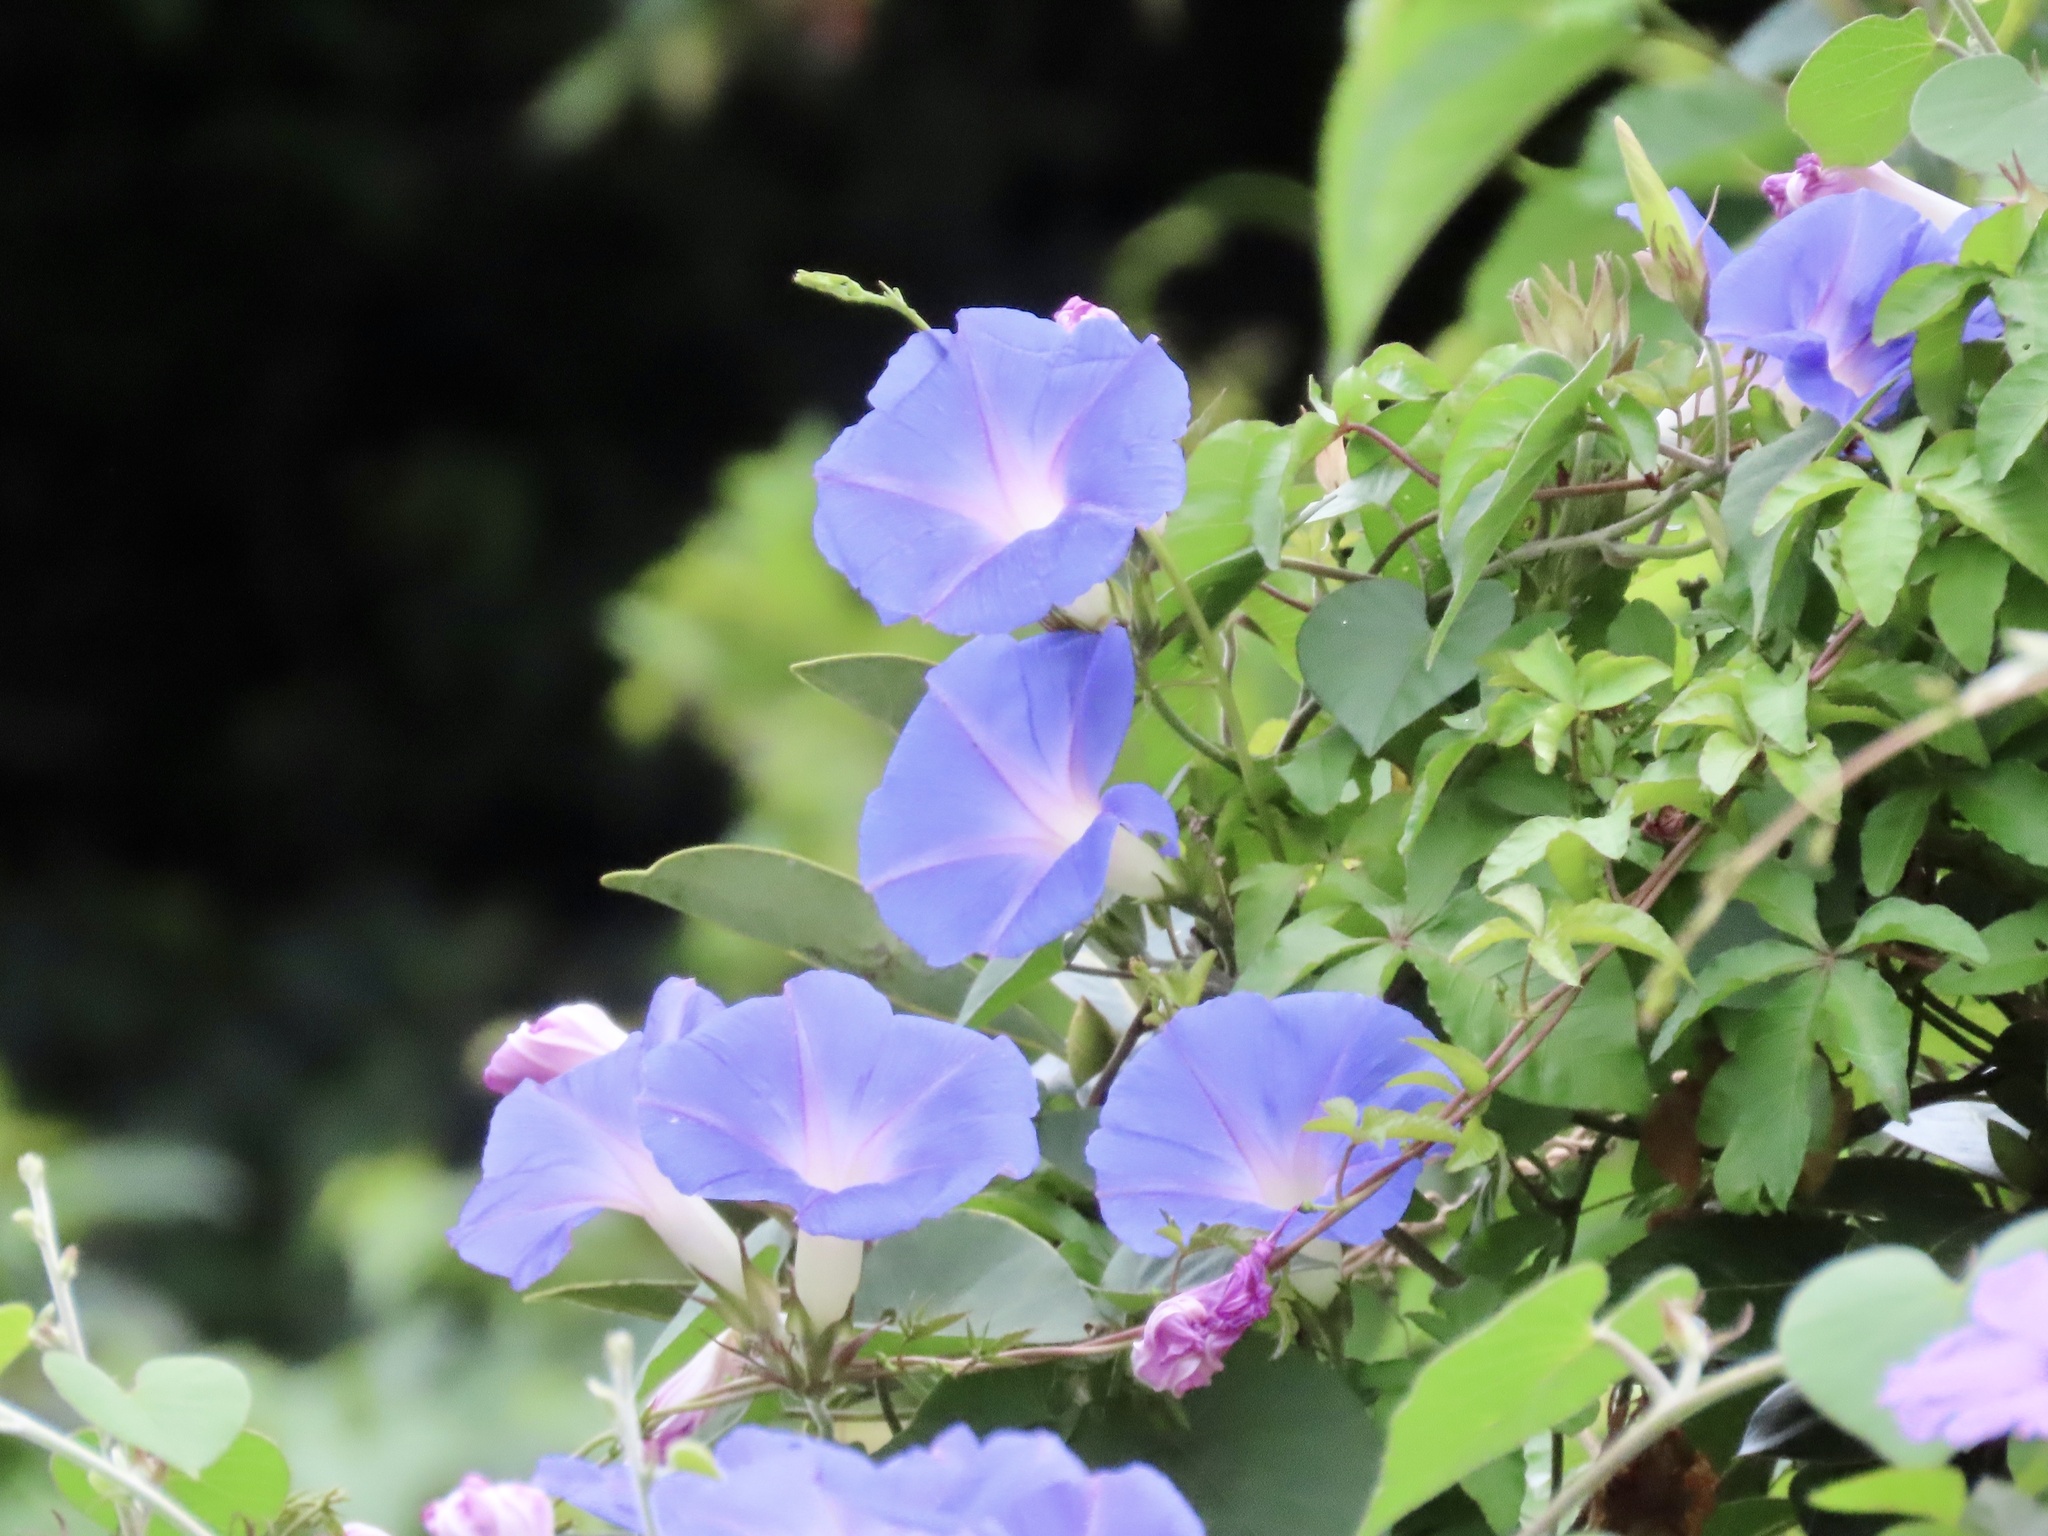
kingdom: Plantae
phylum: Tracheophyta
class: Magnoliopsida
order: Solanales
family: Convolvulaceae
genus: Ipomoea
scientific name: Ipomoea indica
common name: Blue dawnflower
